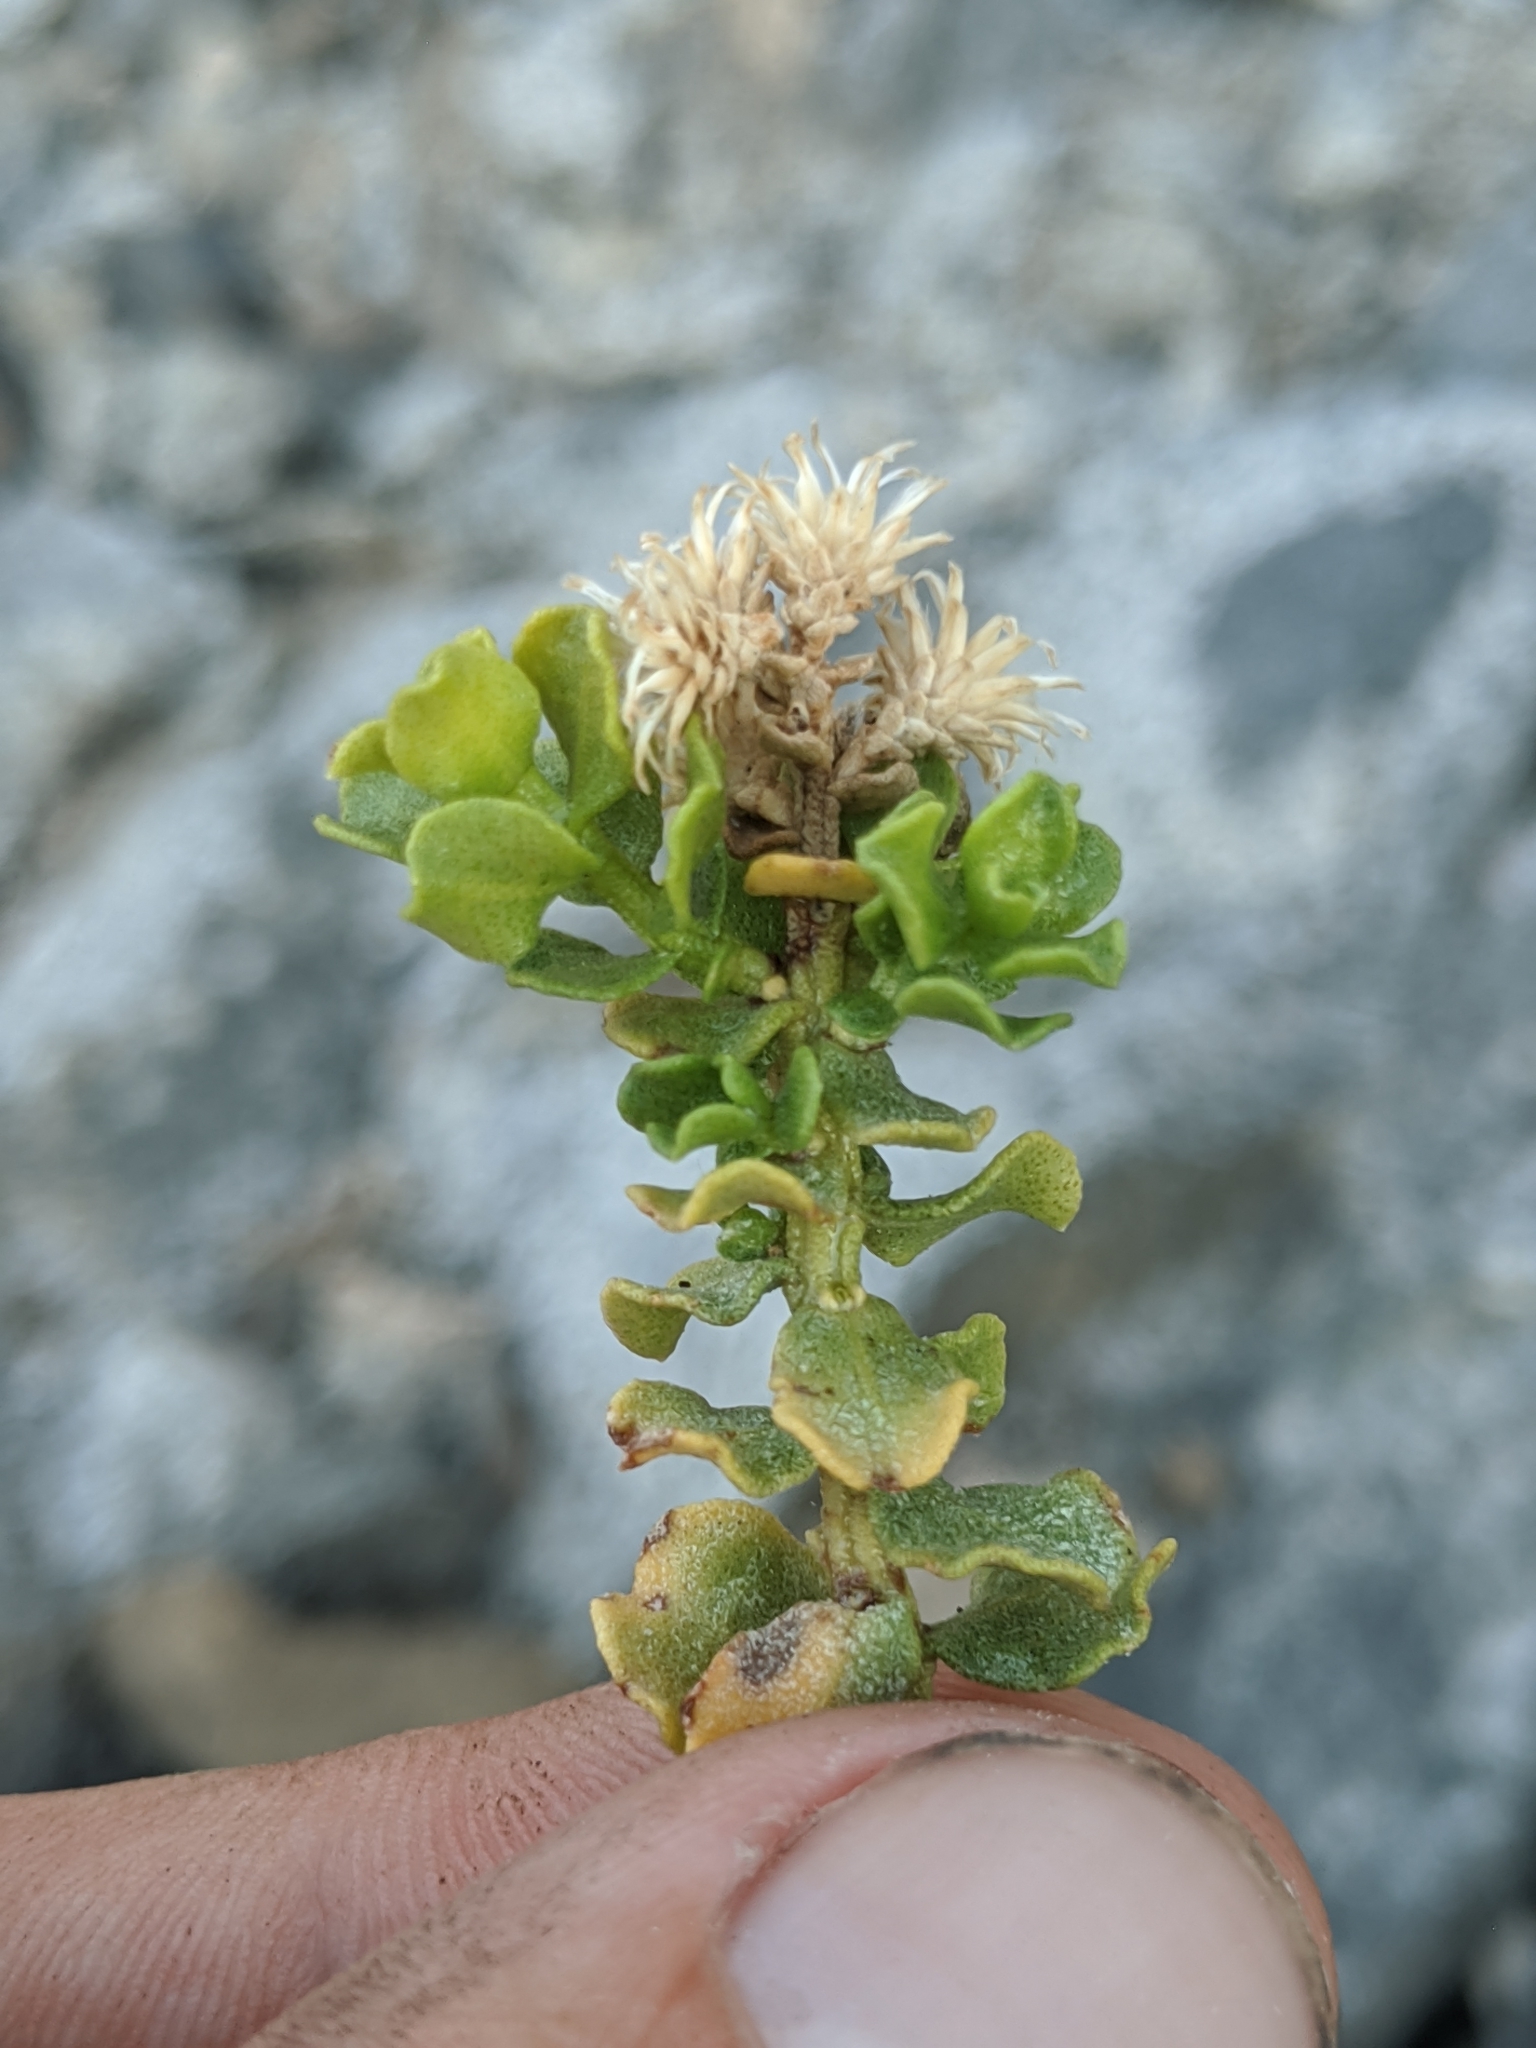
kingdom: Plantae
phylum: Tracheophyta
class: Magnoliopsida
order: Asterales
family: Asteraceae
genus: Ericameria
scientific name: Ericameria cuneata
